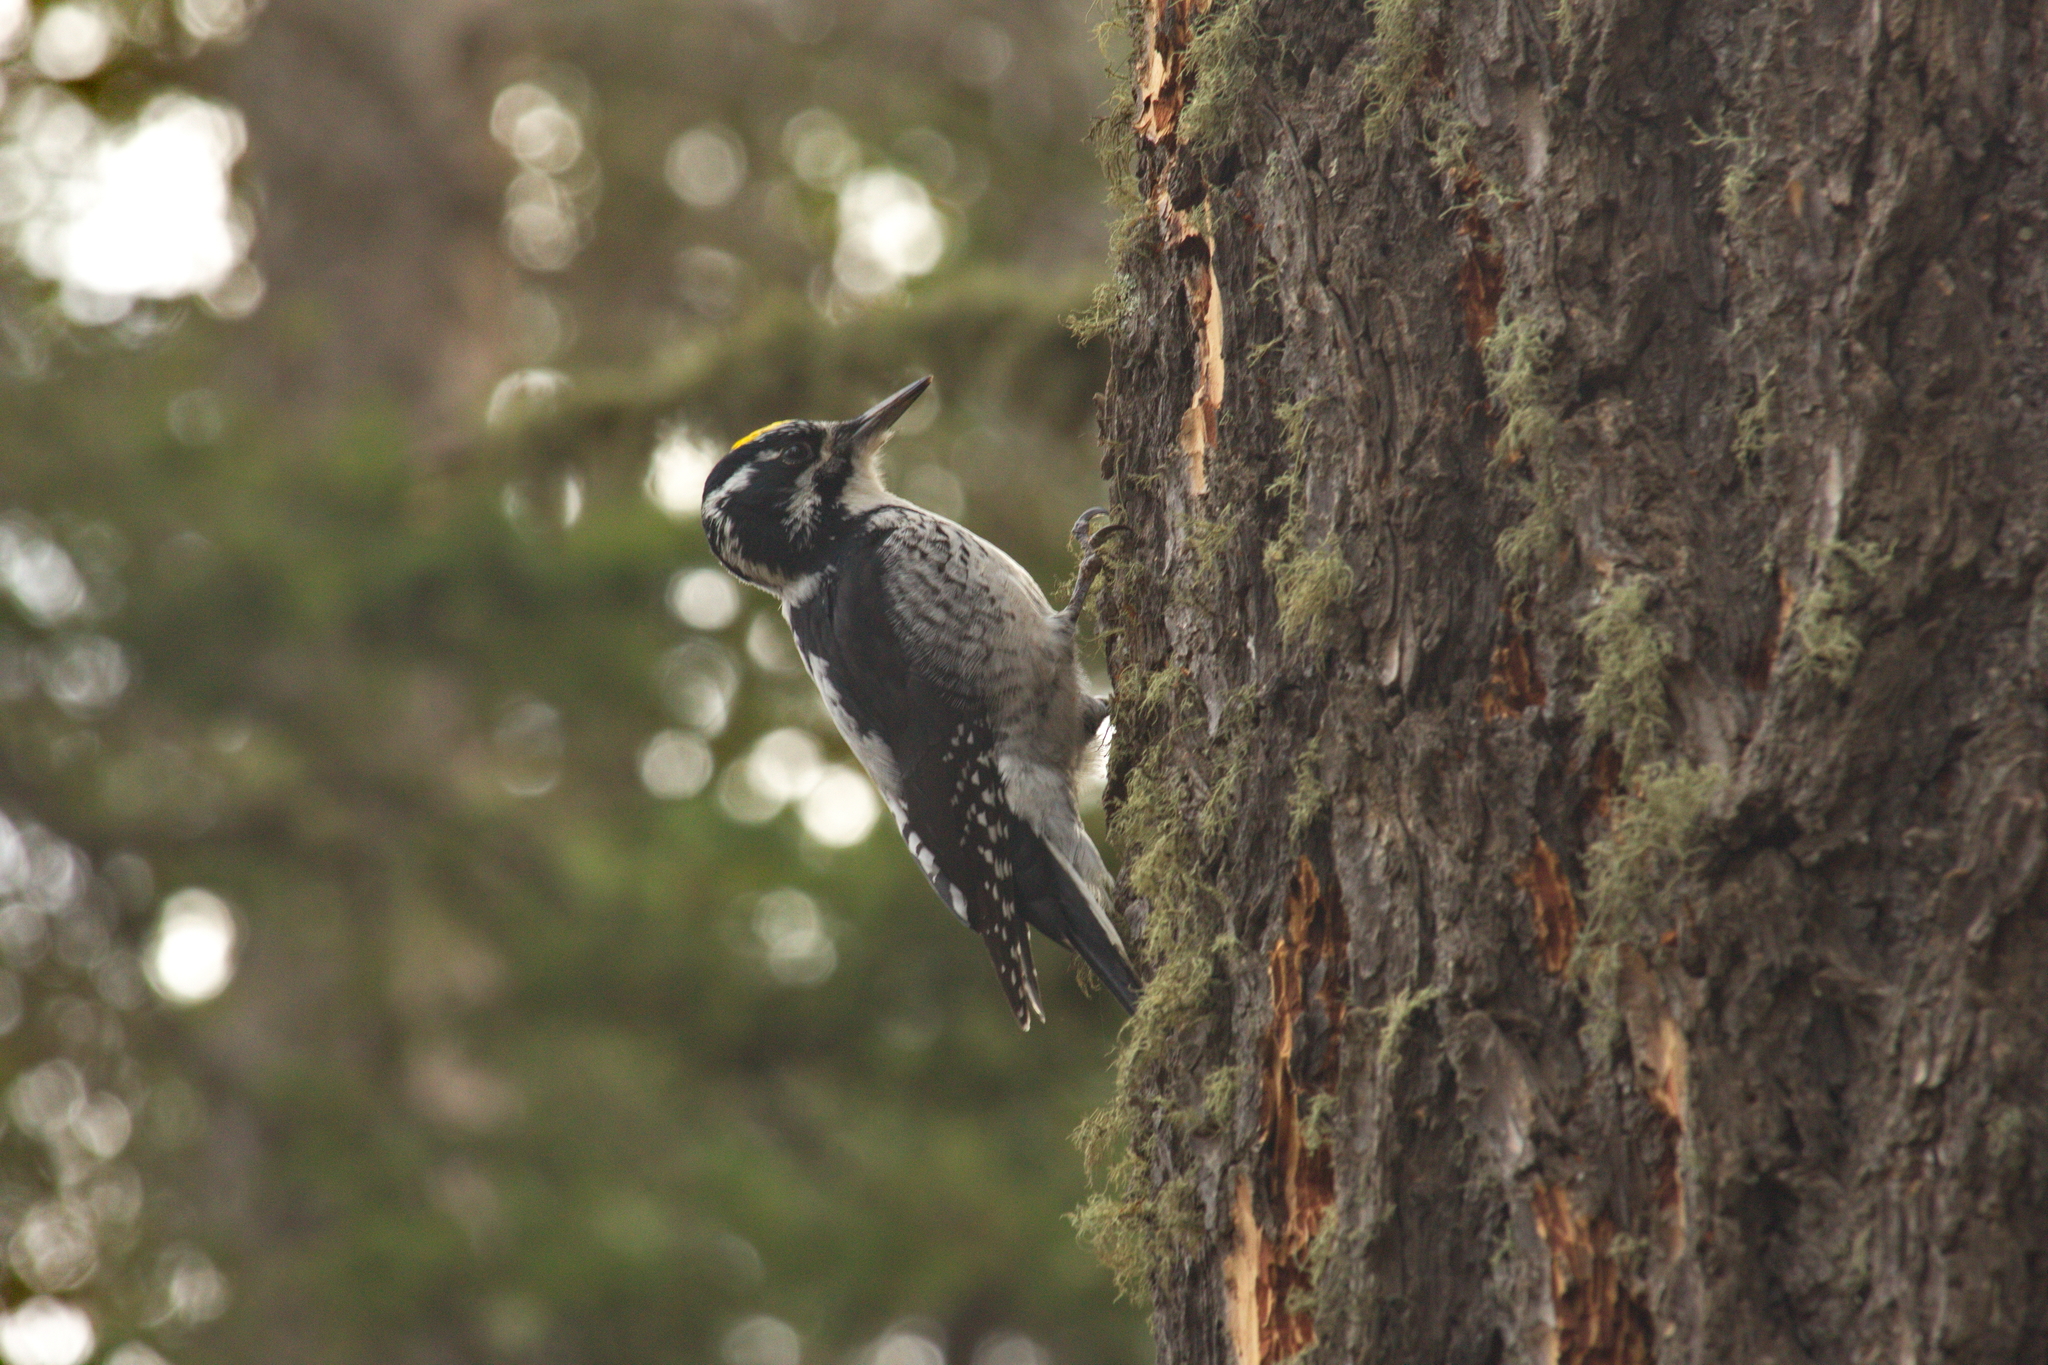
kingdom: Animalia
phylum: Chordata
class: Aves
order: Piciformes
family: Picidae
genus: Picoides
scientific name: Picoides dorsalis
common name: American three-toed woodpecker
